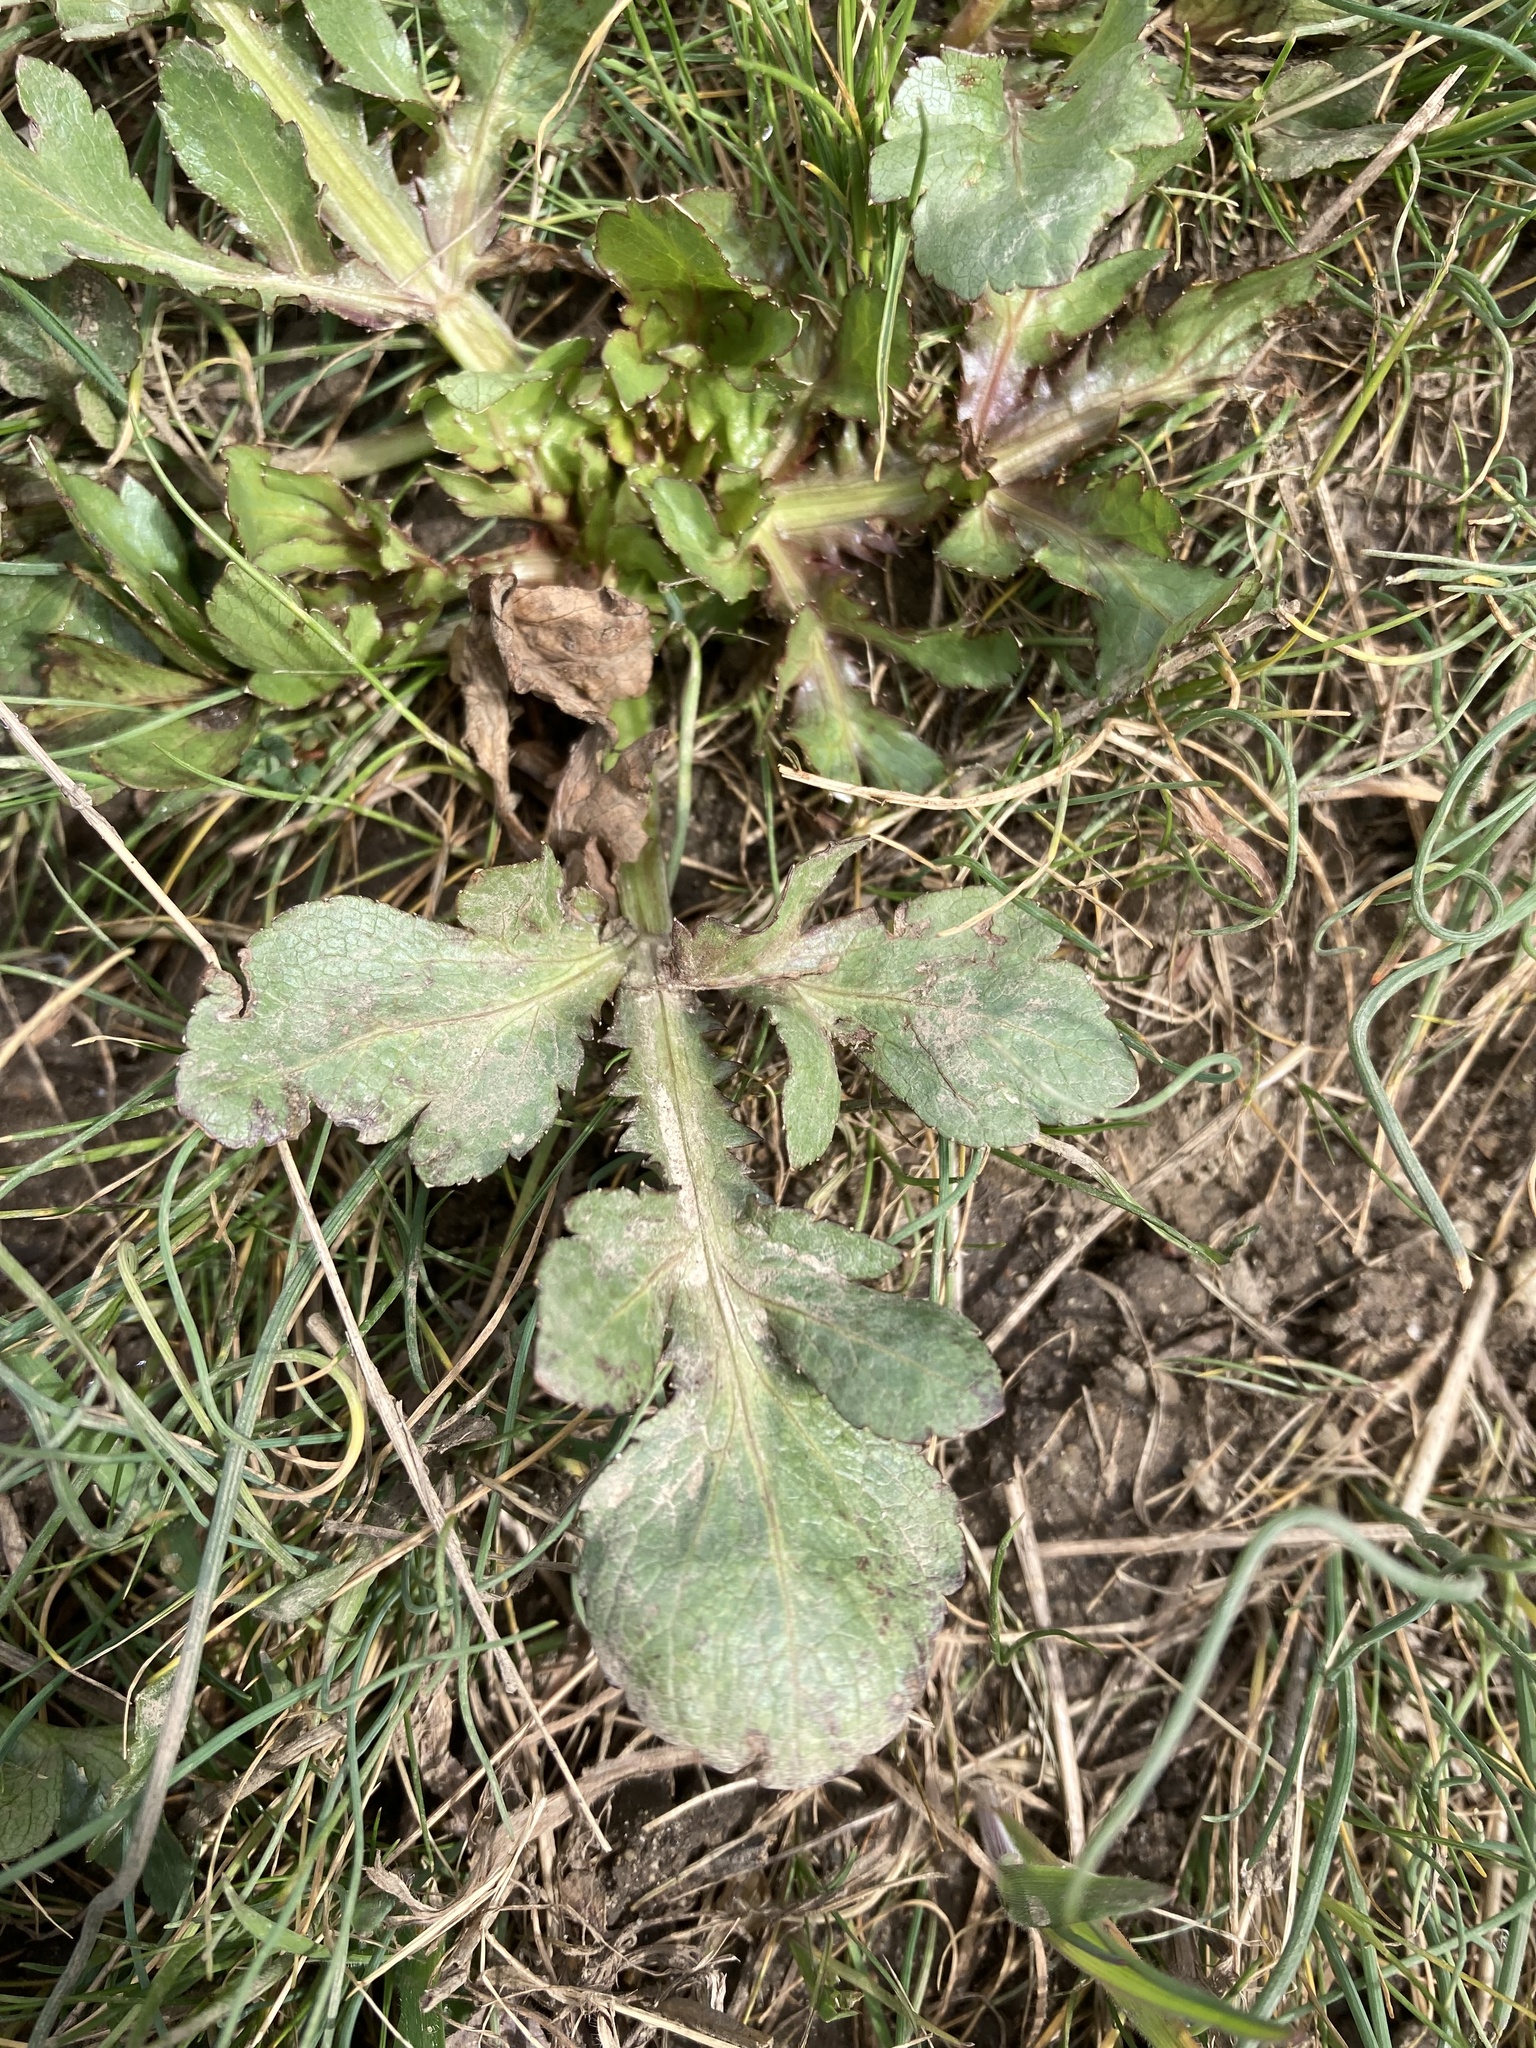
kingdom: Plantae
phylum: Tracheophyta
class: Magnoliopsida
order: Apiales
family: Apiaceae
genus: Sanicula
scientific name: Sanicula bipinnatifida
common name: Shoe-buttons
